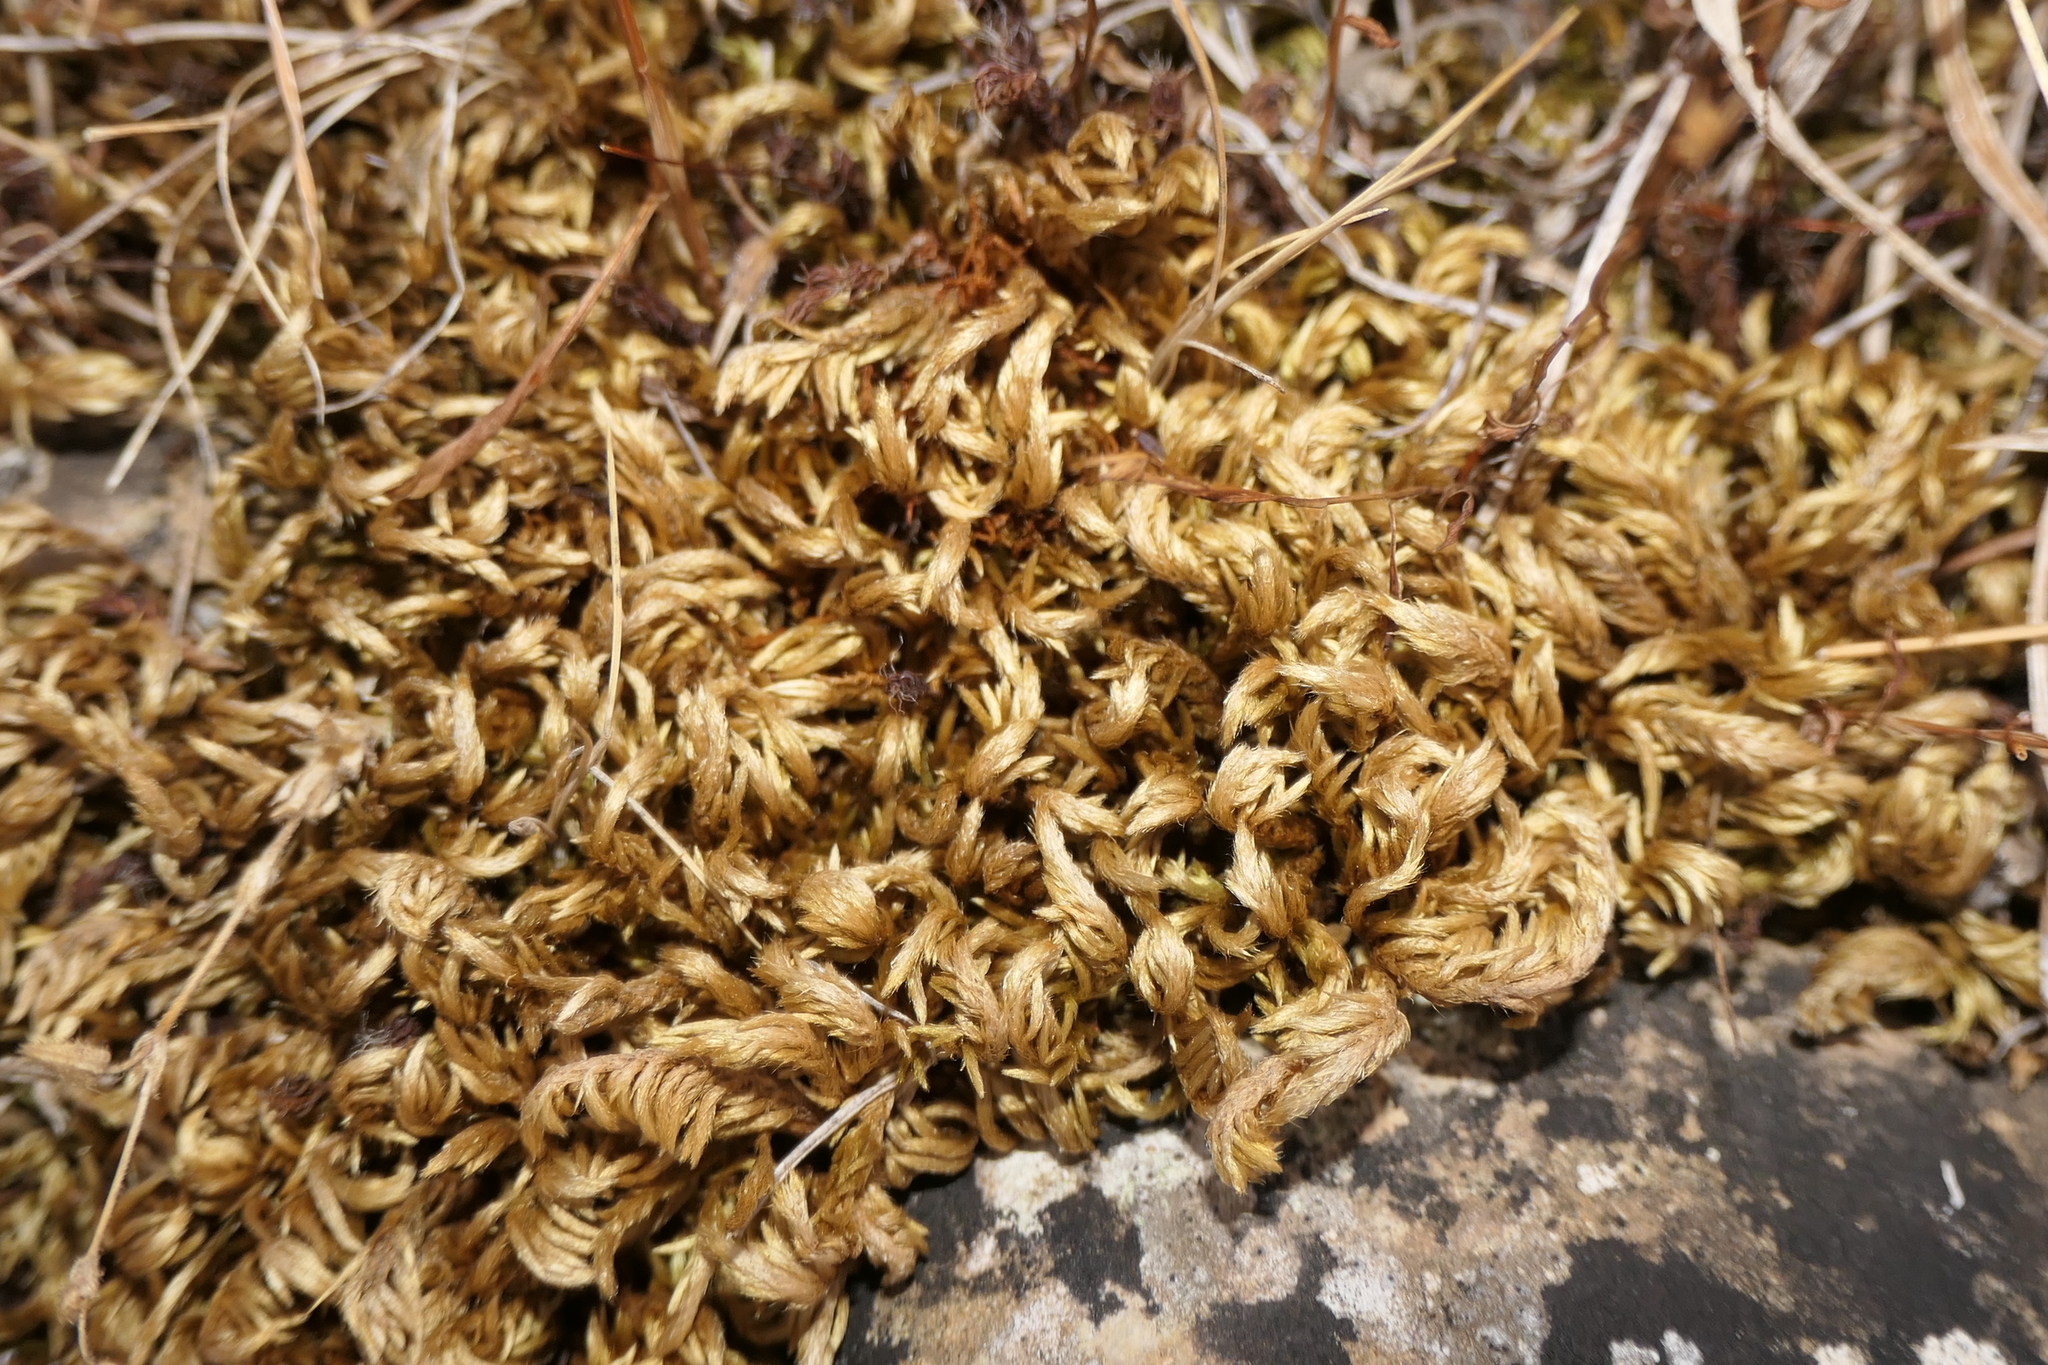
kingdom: Plantae
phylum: Bryophyta
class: Bryopsida
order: Hypnales
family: Brachytheciaceae
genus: Homalothecium
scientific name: Homalothecium sericeum
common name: Silky wall feather-moss
